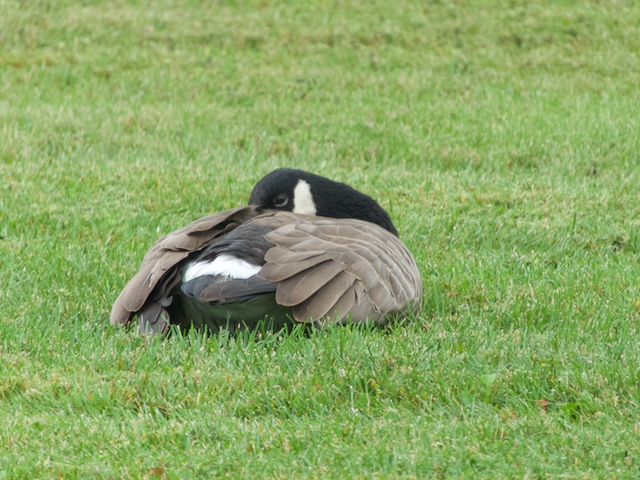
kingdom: Animalia
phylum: Chordata
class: Aves
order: Anseriformes
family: Anatidae
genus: Branta
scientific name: Branta canadensis
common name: Canada goose
